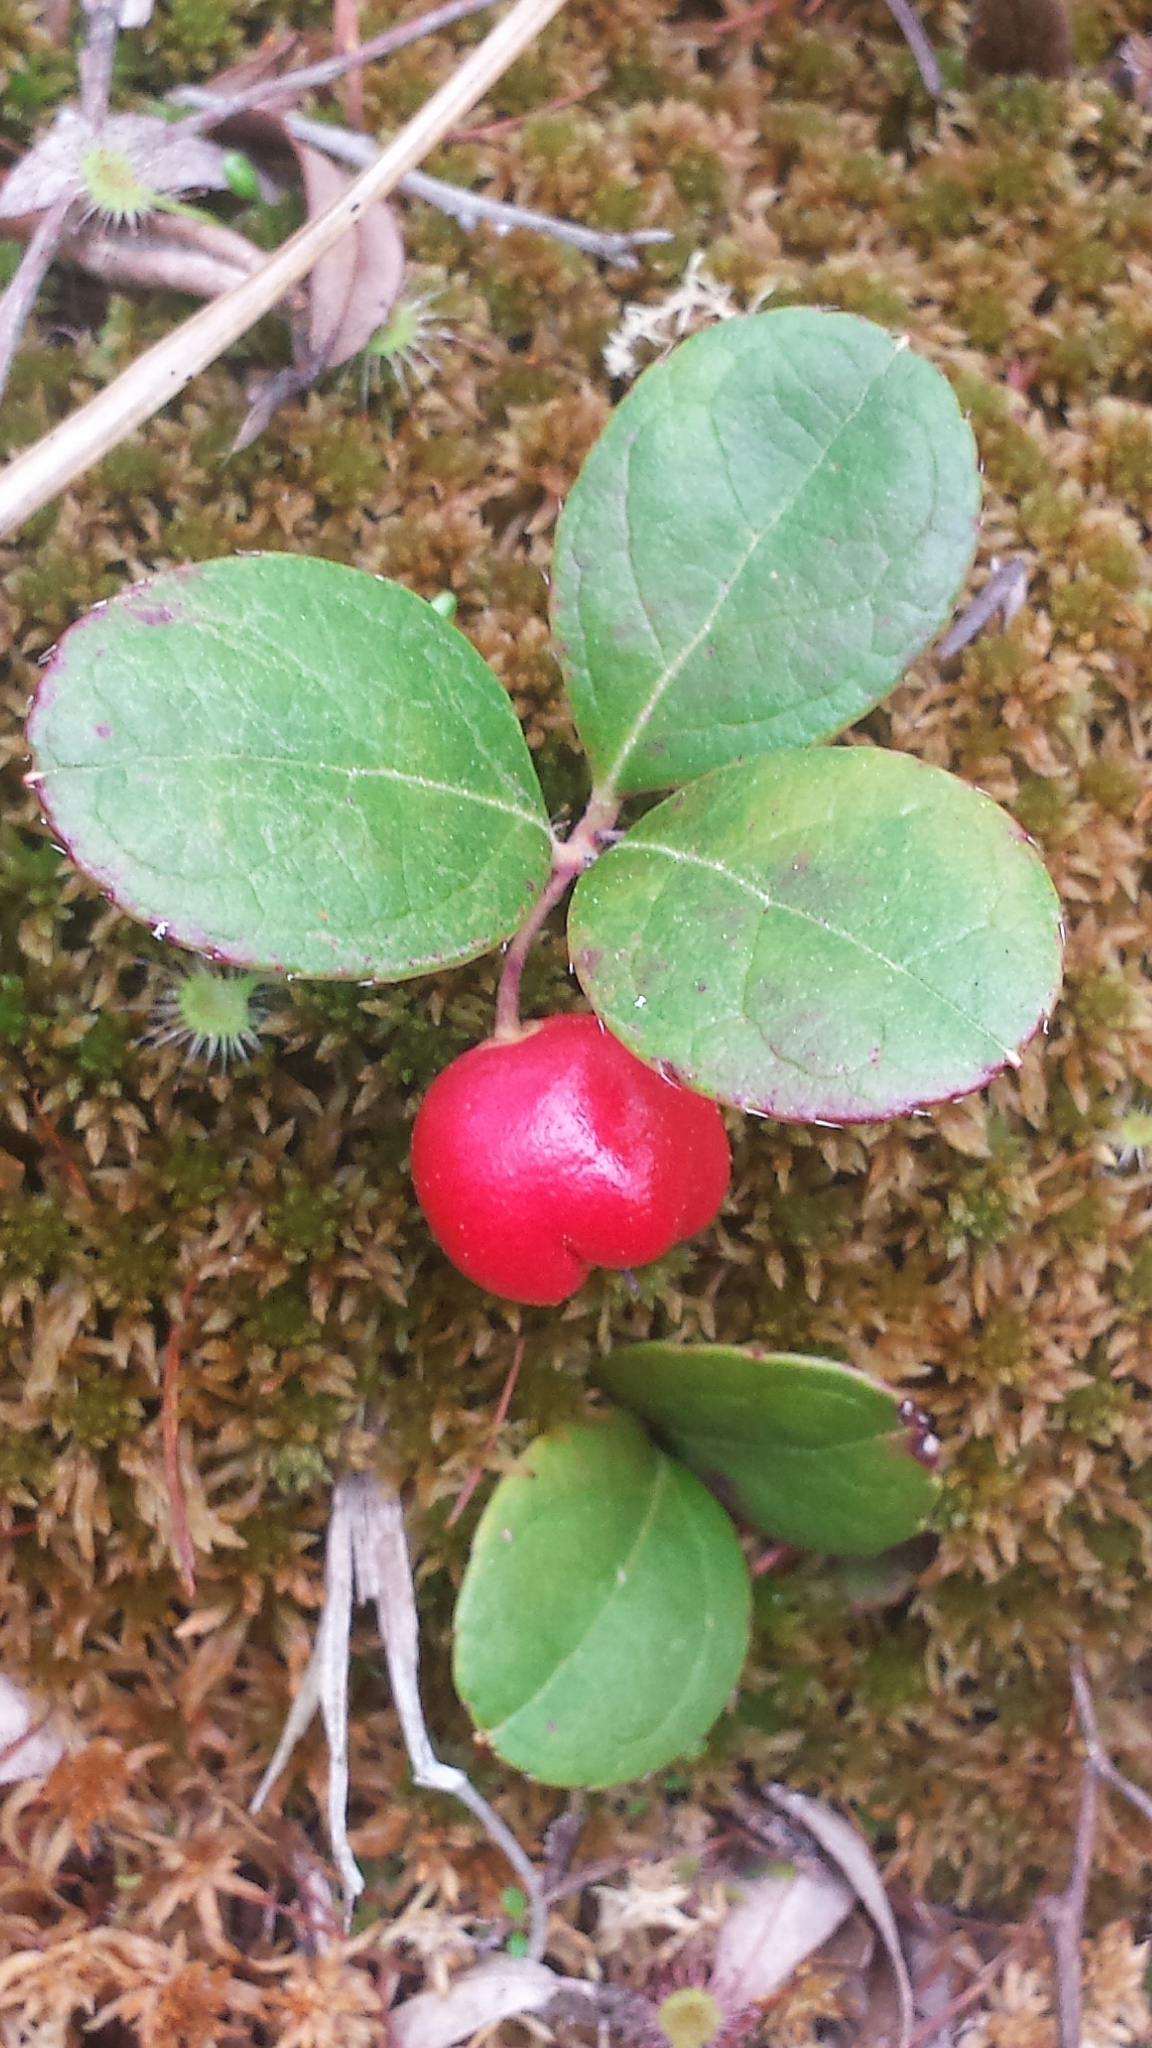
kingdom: Plantae
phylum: Tracheophyta
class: Magnoliopsida
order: Ericales
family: Ericaceae
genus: Gaultheria
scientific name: Gaultheria procumbens
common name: Checkerberry
